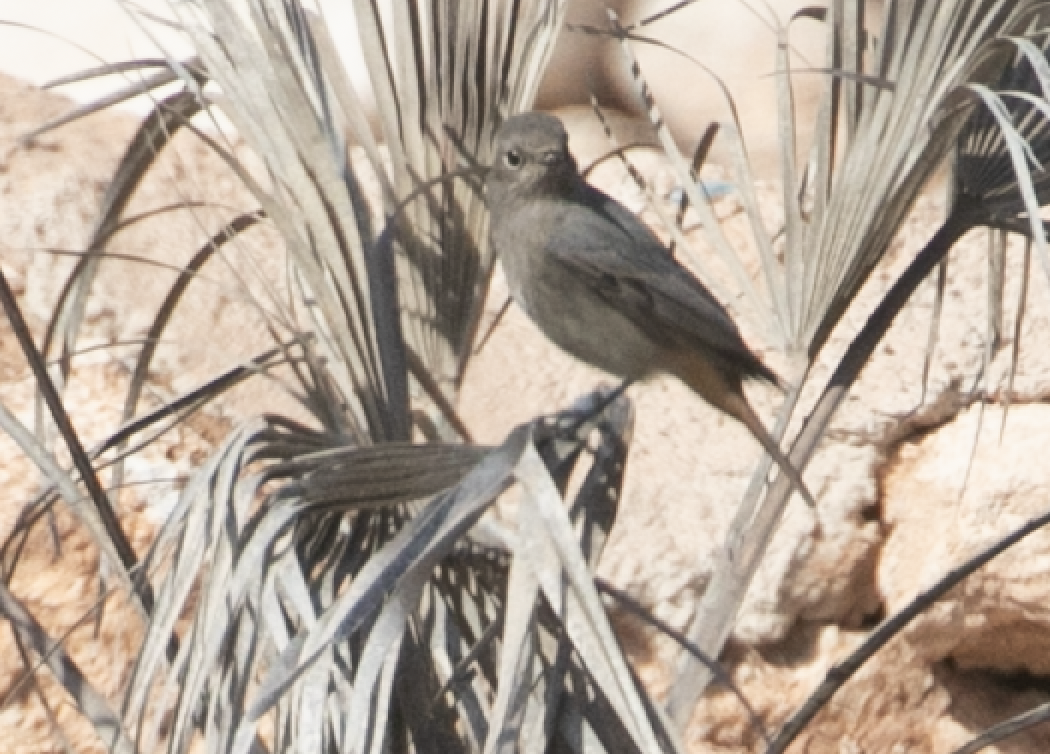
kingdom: Animalia
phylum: Chordata
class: Aves
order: Passeriformes
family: Muscicapidae
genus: Phoenicurus
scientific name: Phoenicurus ochruros
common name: Black redstart
